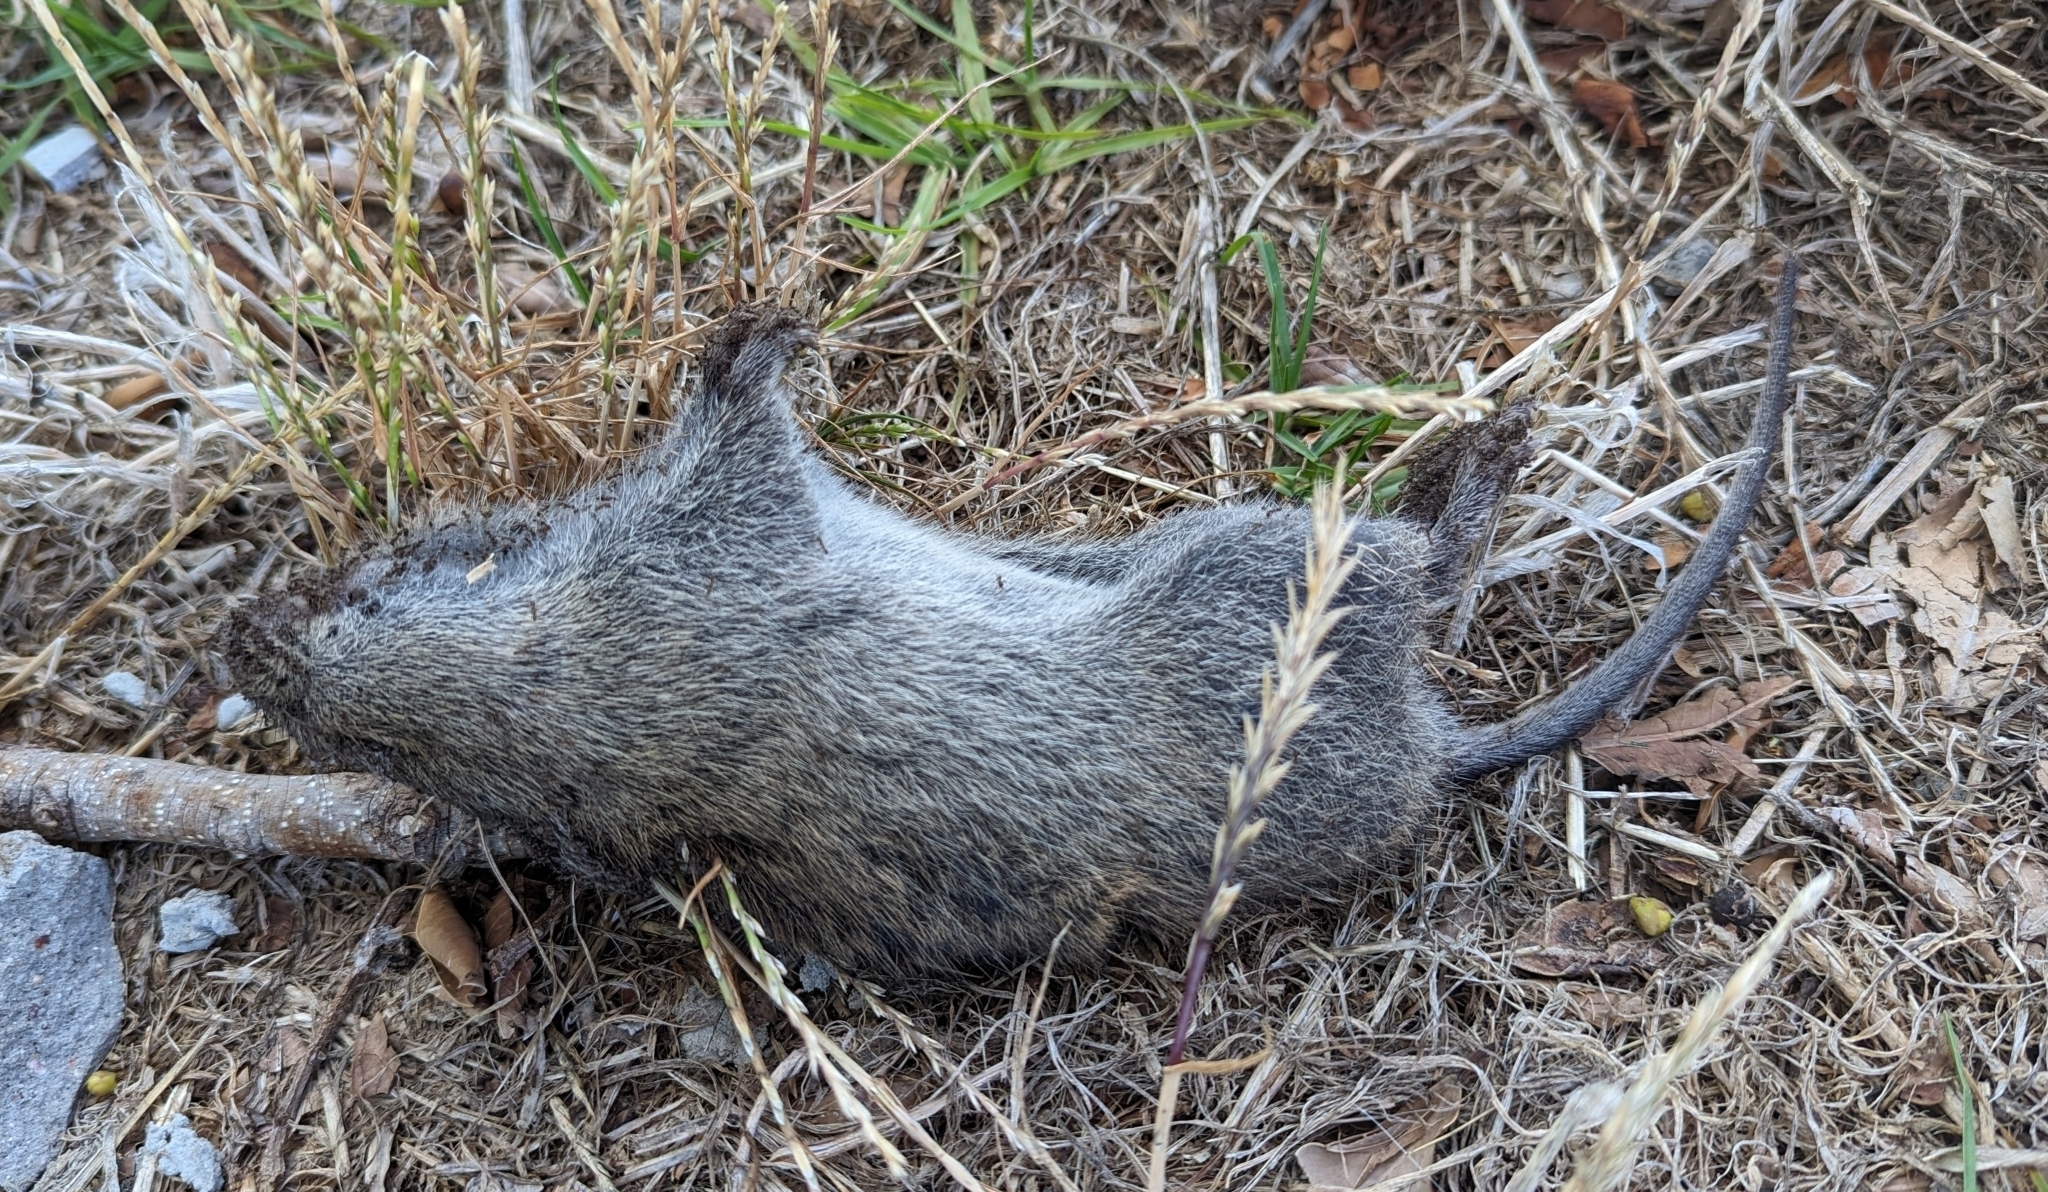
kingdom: Animalia
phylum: Chordata
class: Mammalia
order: Rodentia
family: Muridae
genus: Otomys
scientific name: Otomys irroratus
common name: Southern african vlei rat
